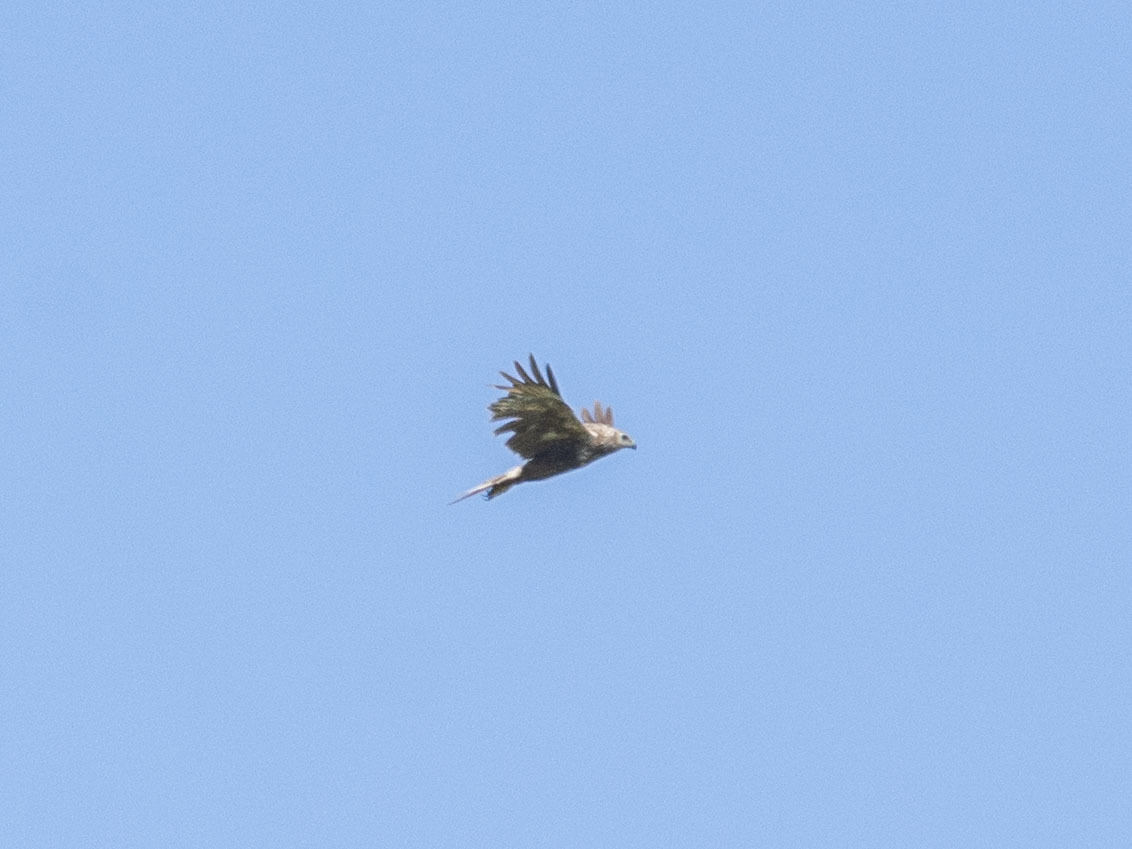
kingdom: Animalia
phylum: Chordata
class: Aves
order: Accipitriformes
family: Accipitridae
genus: Circus
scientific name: Circus spilonotus
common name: Eastern marsh-harrier
